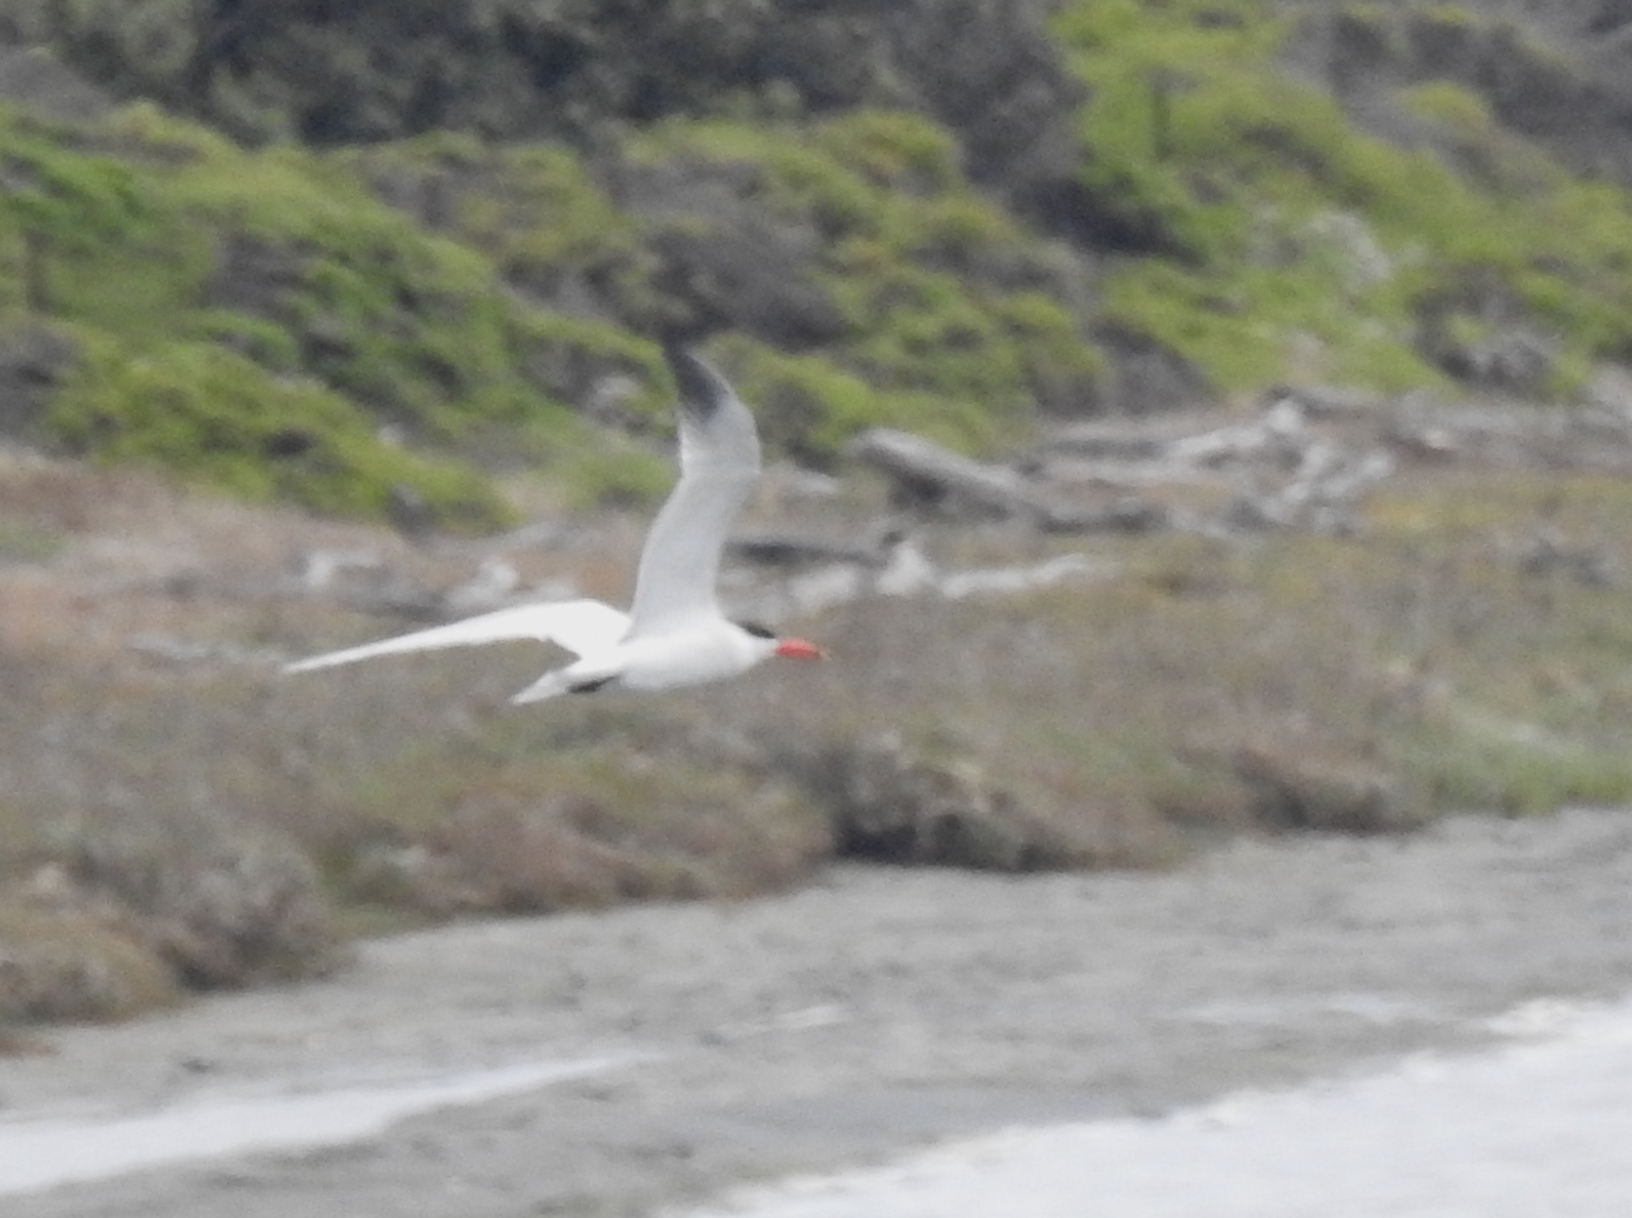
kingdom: Animalia
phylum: Chordata
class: Aves
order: Charadriiformes
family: Laridae
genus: Hydroprogne
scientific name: Hydroprogne caspia
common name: Caspian tern
